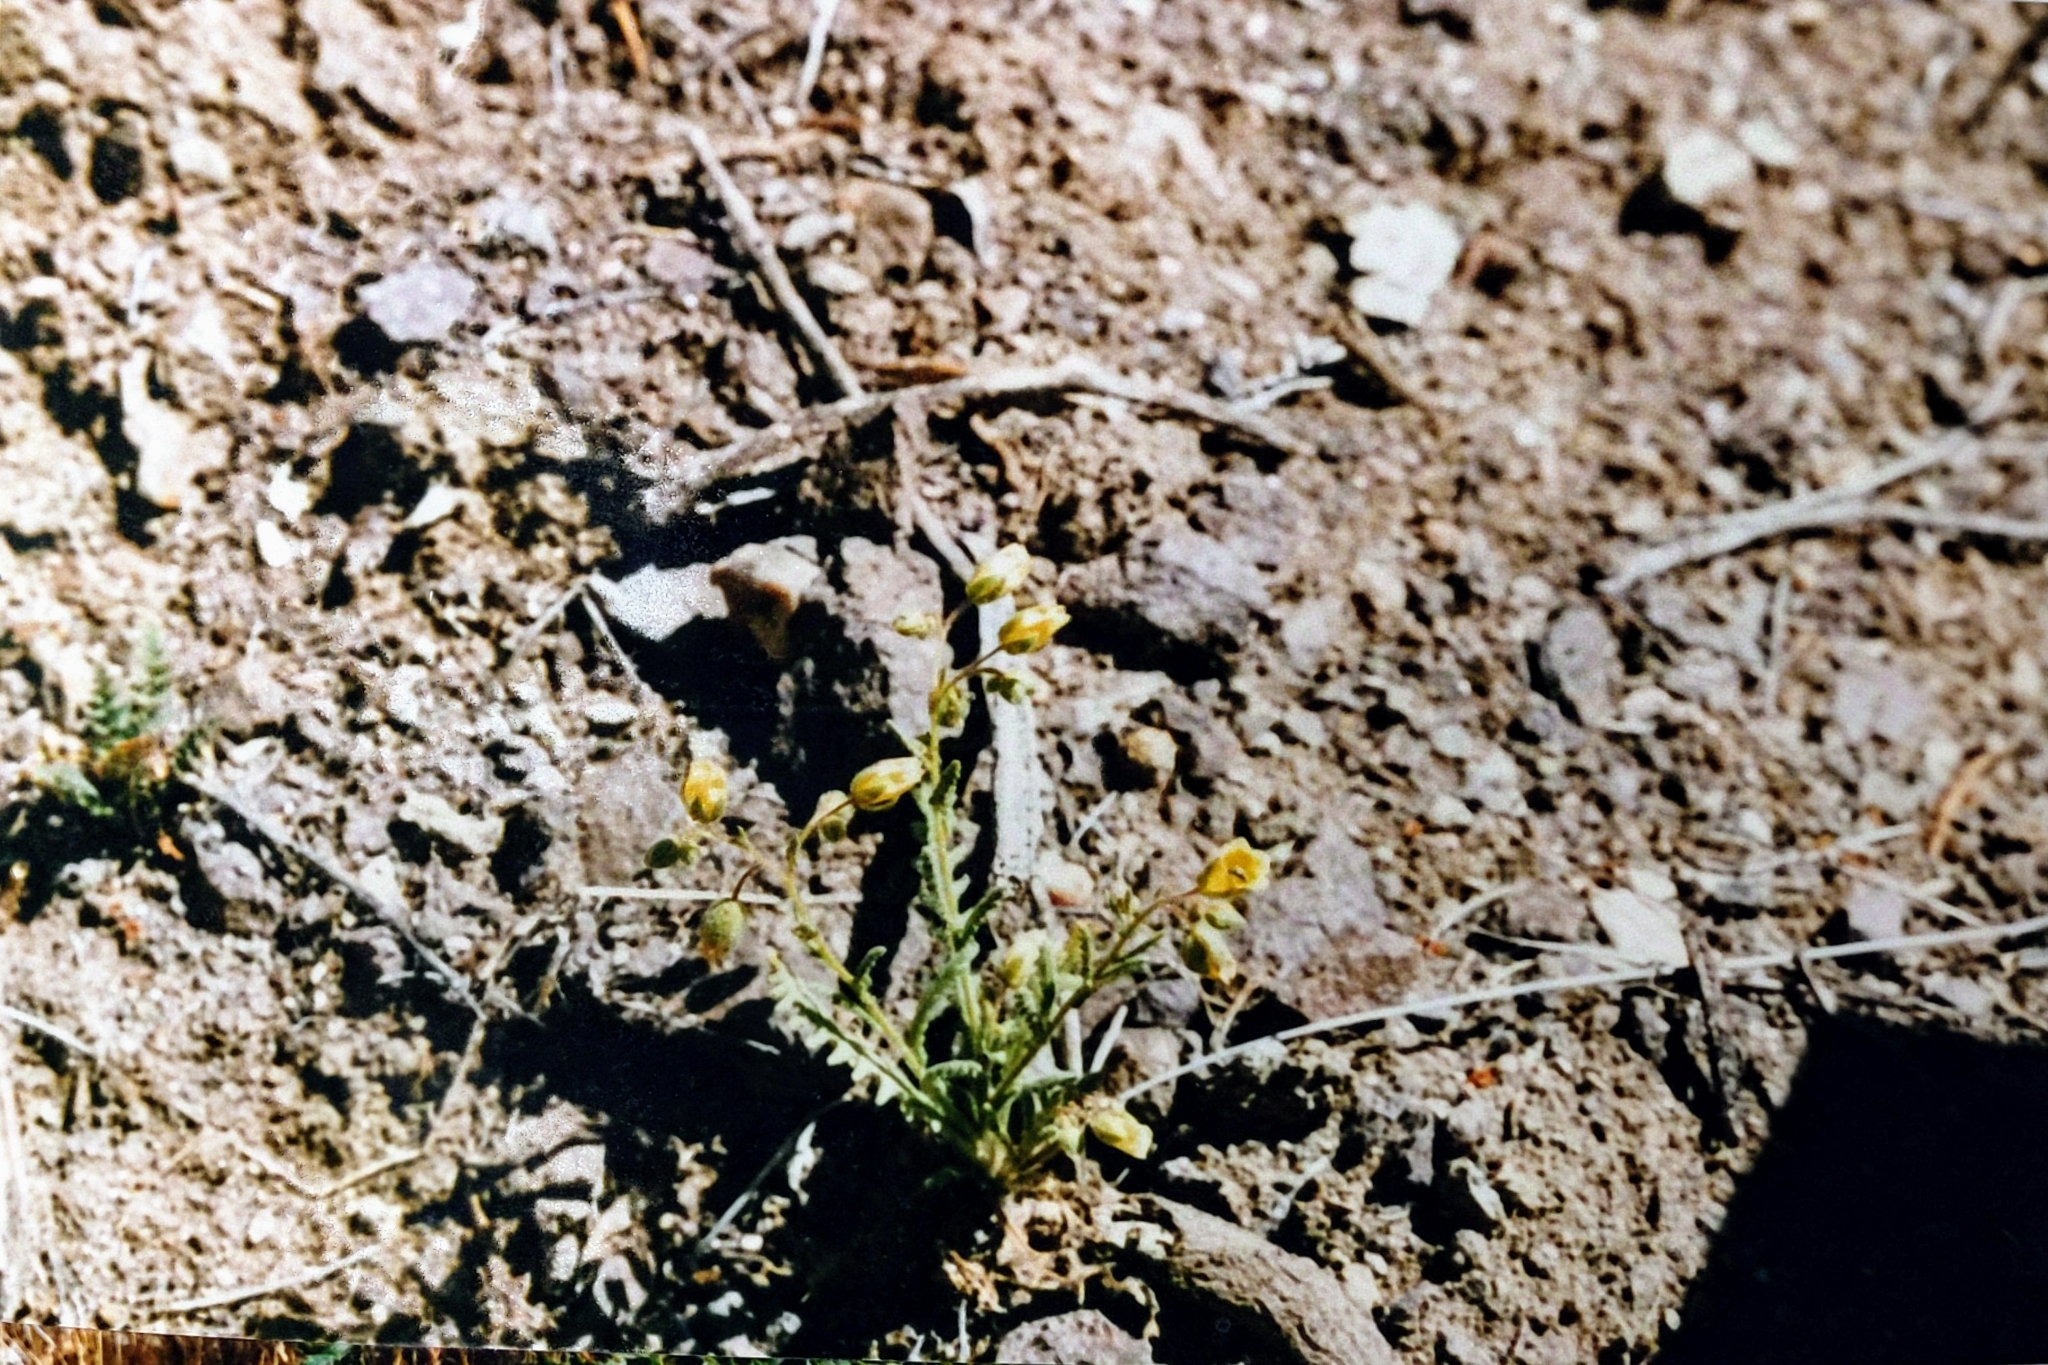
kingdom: Plantae
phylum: Tracheophyta
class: Magnoliopsida
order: Boraginales
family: Hydrophyllaceae
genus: Emmenanthe
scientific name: Emmenanthe penduliflora
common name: Whispering-bells
